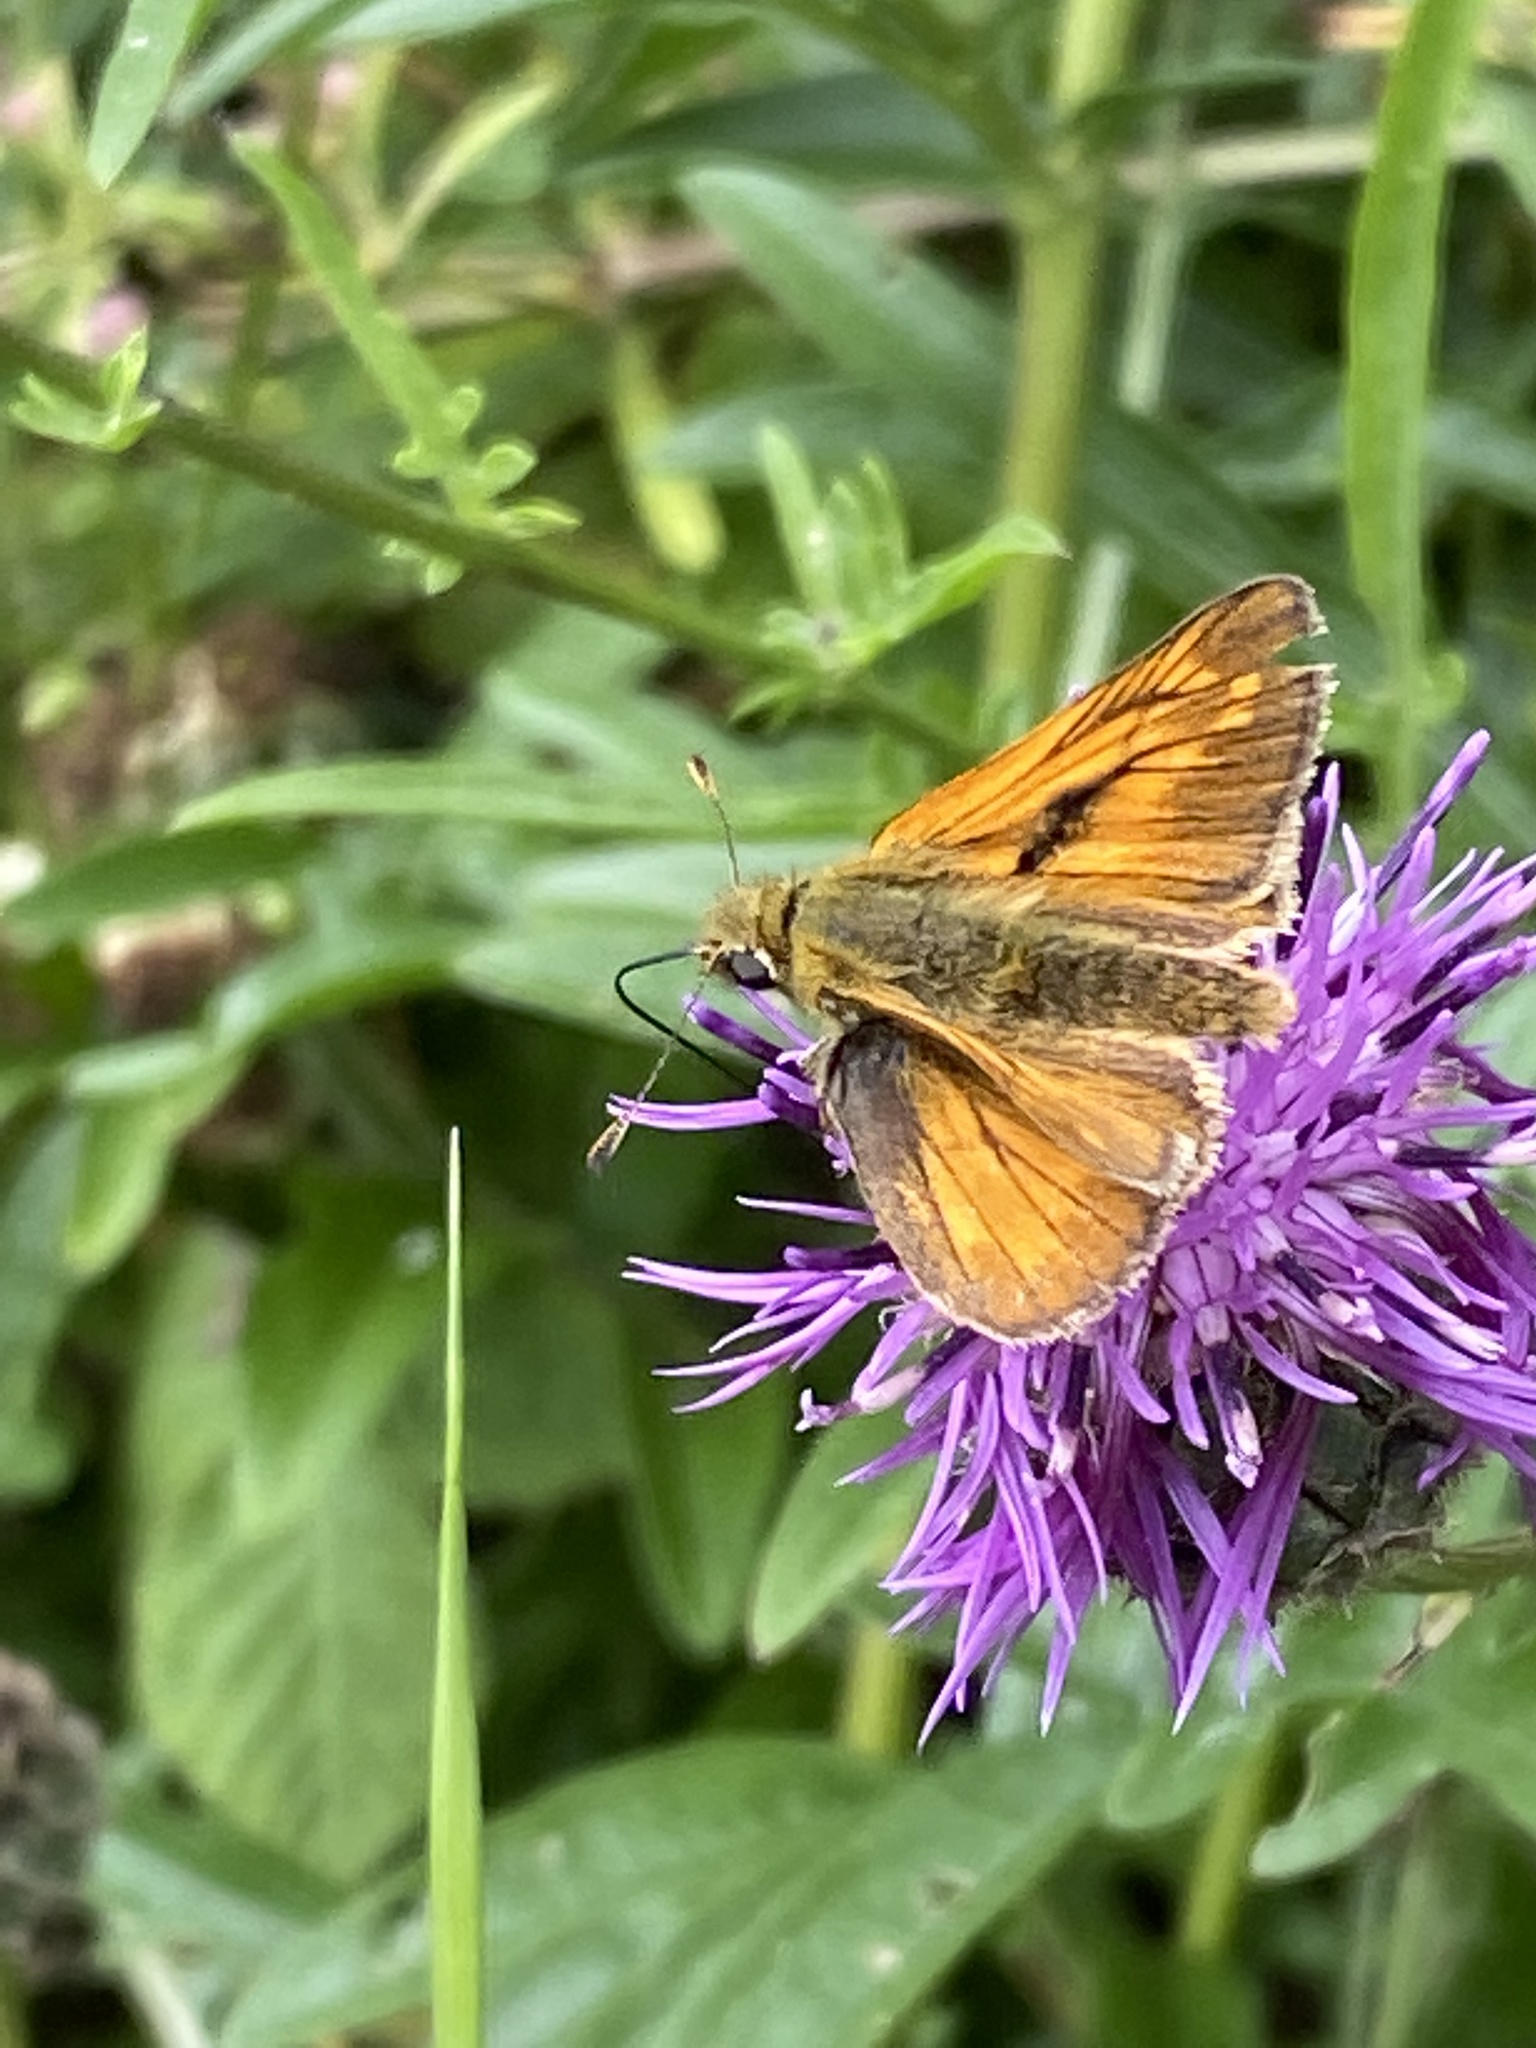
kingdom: Animalia
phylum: Arthropoda
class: Insecta
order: Lepidoptera
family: Hesperiidae
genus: Ochlodes
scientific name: Ochlodes venata
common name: Large skipper
